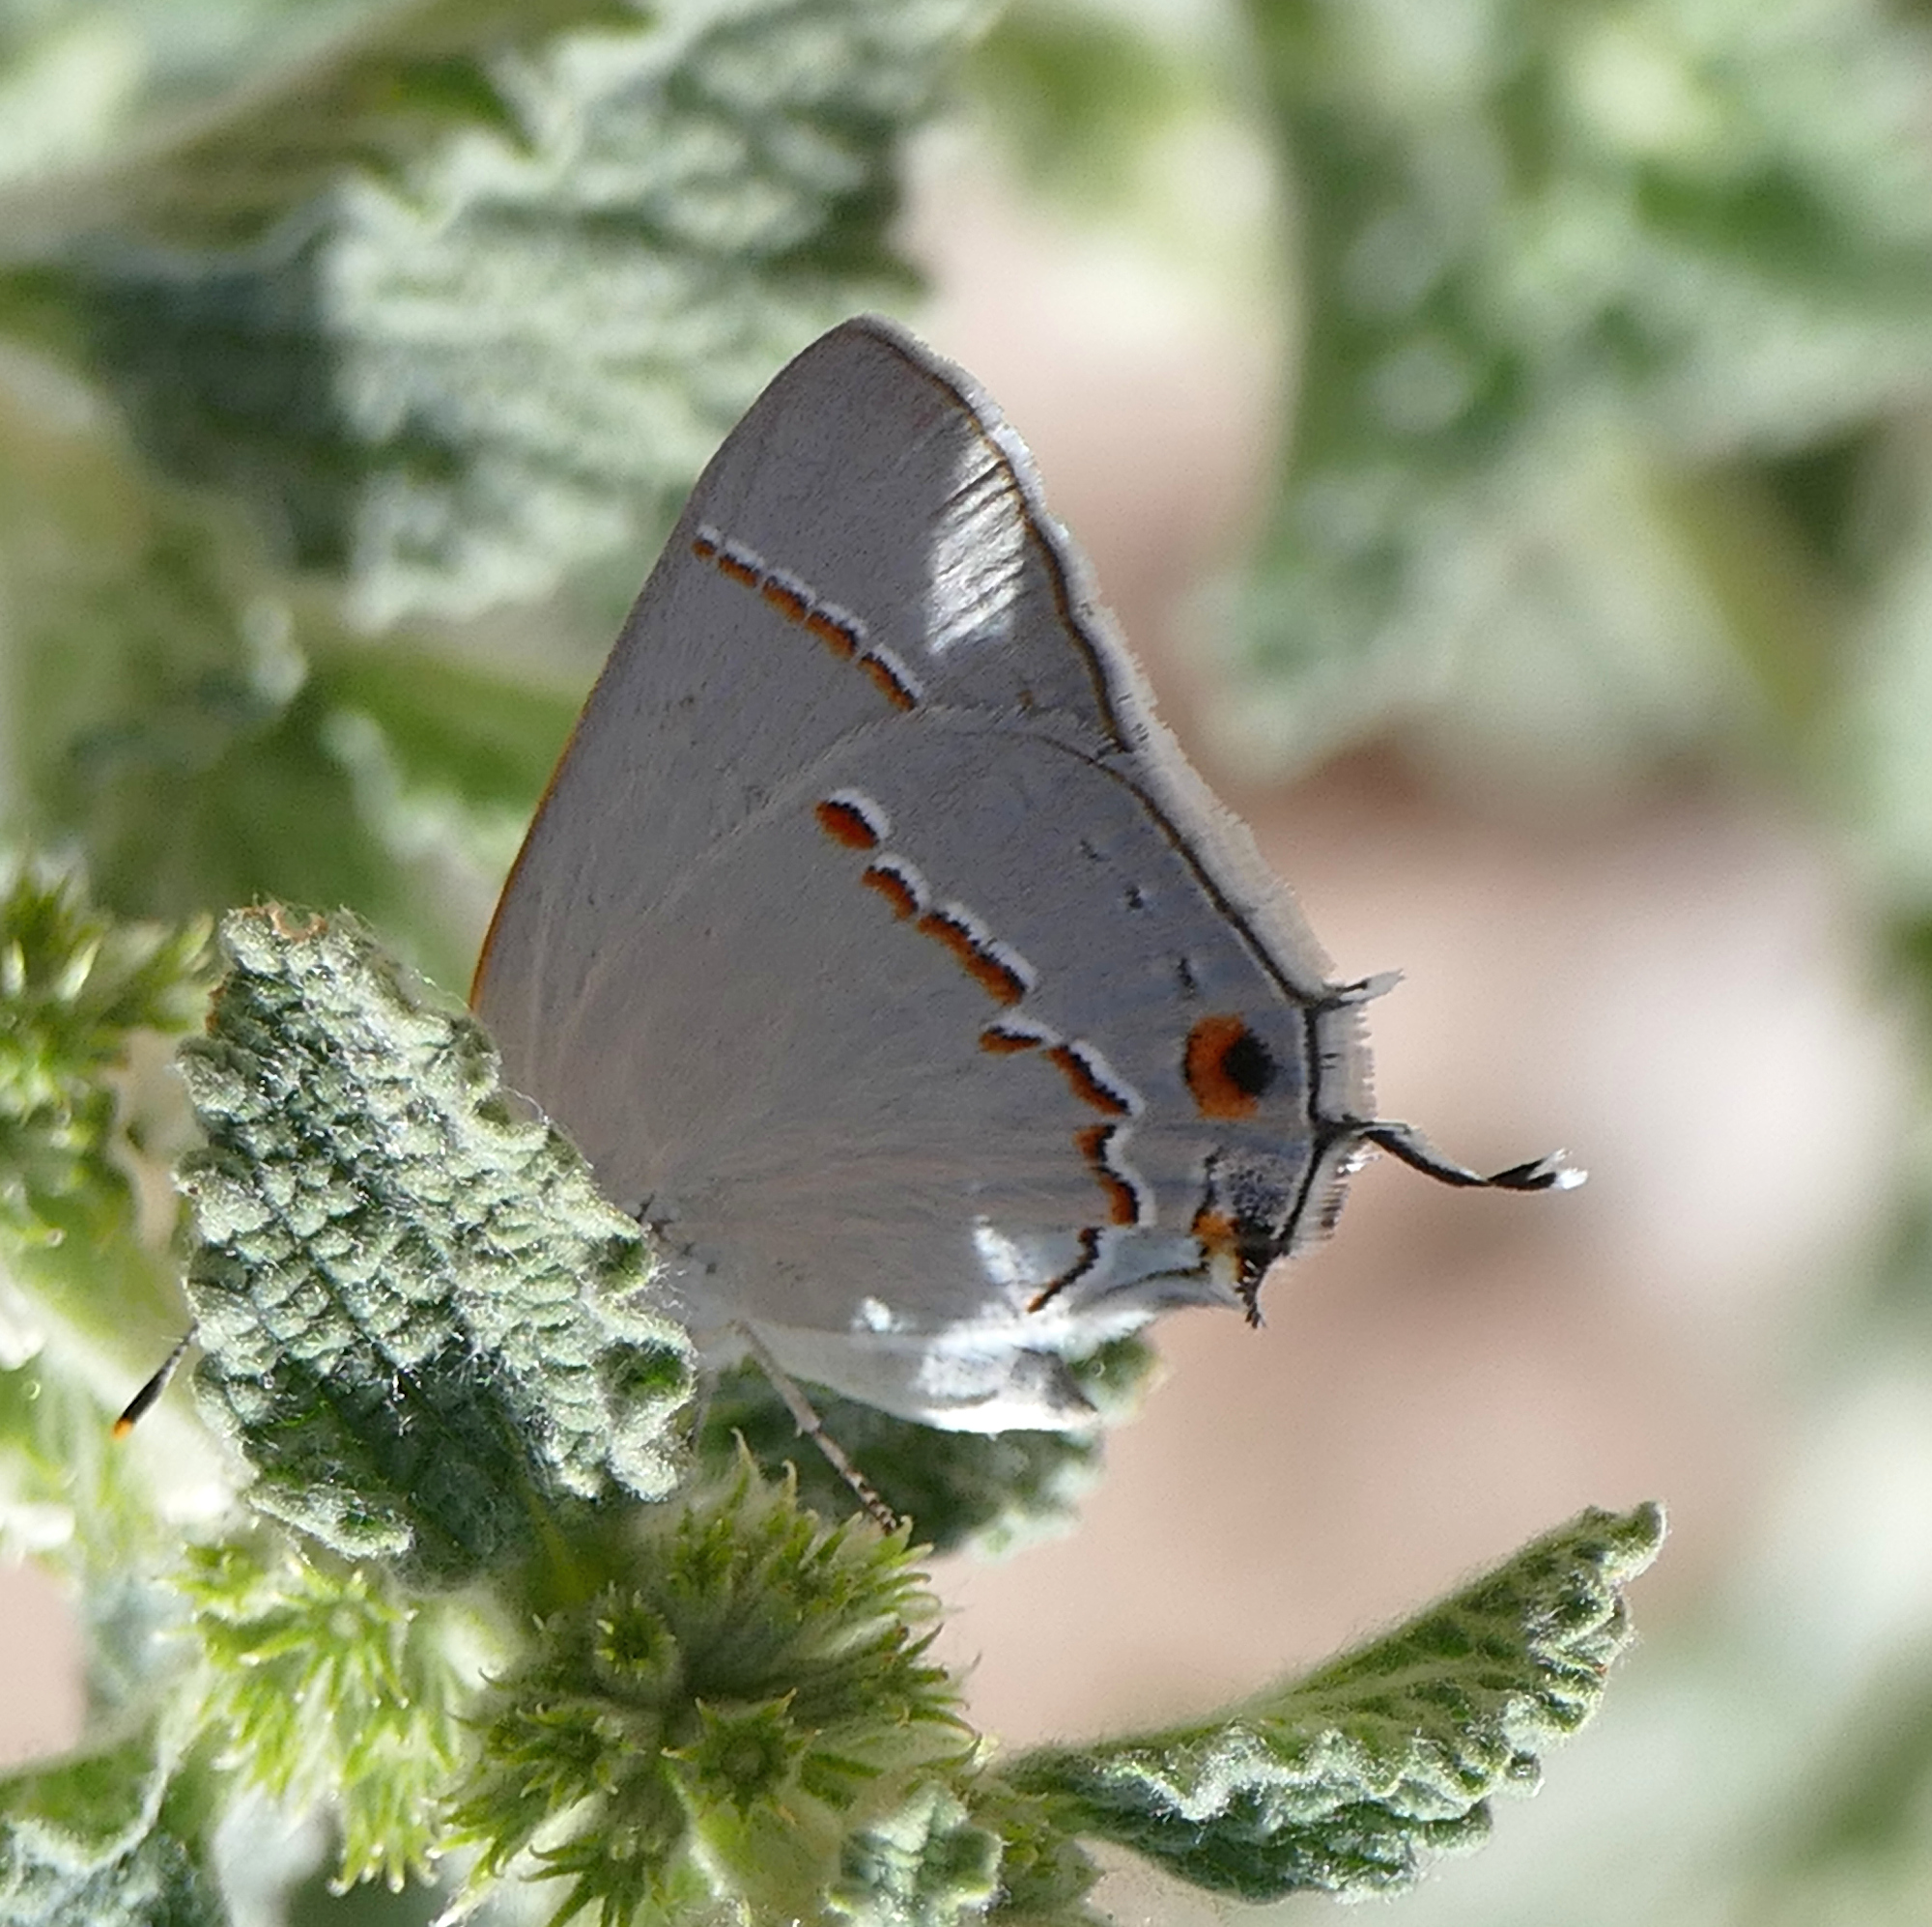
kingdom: Animalia
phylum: Arthropoda
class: Insecta
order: Lepidoptera
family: Lycaenidae
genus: Strymon
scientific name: Strymon melinus
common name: Gray hairstreak
